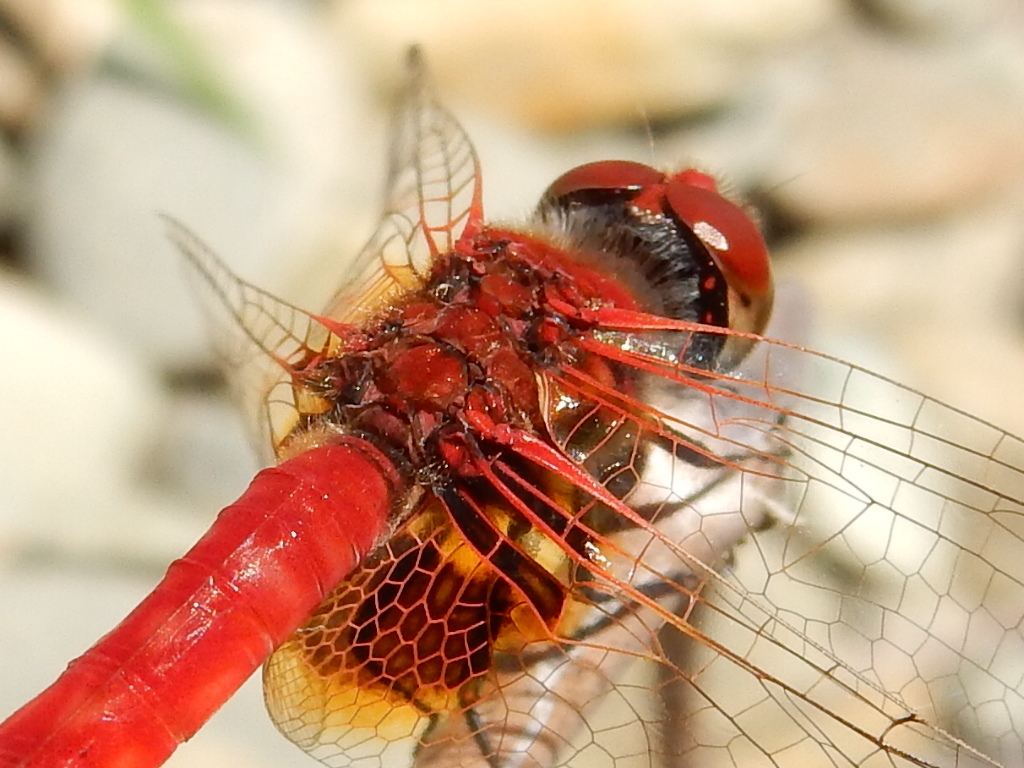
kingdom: Animalia
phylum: Arthropoda
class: Insecta
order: Odonata
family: Libellulidae
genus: Aethriamanta
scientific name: Aethriamanta circumsignata
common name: Square-spot basker
